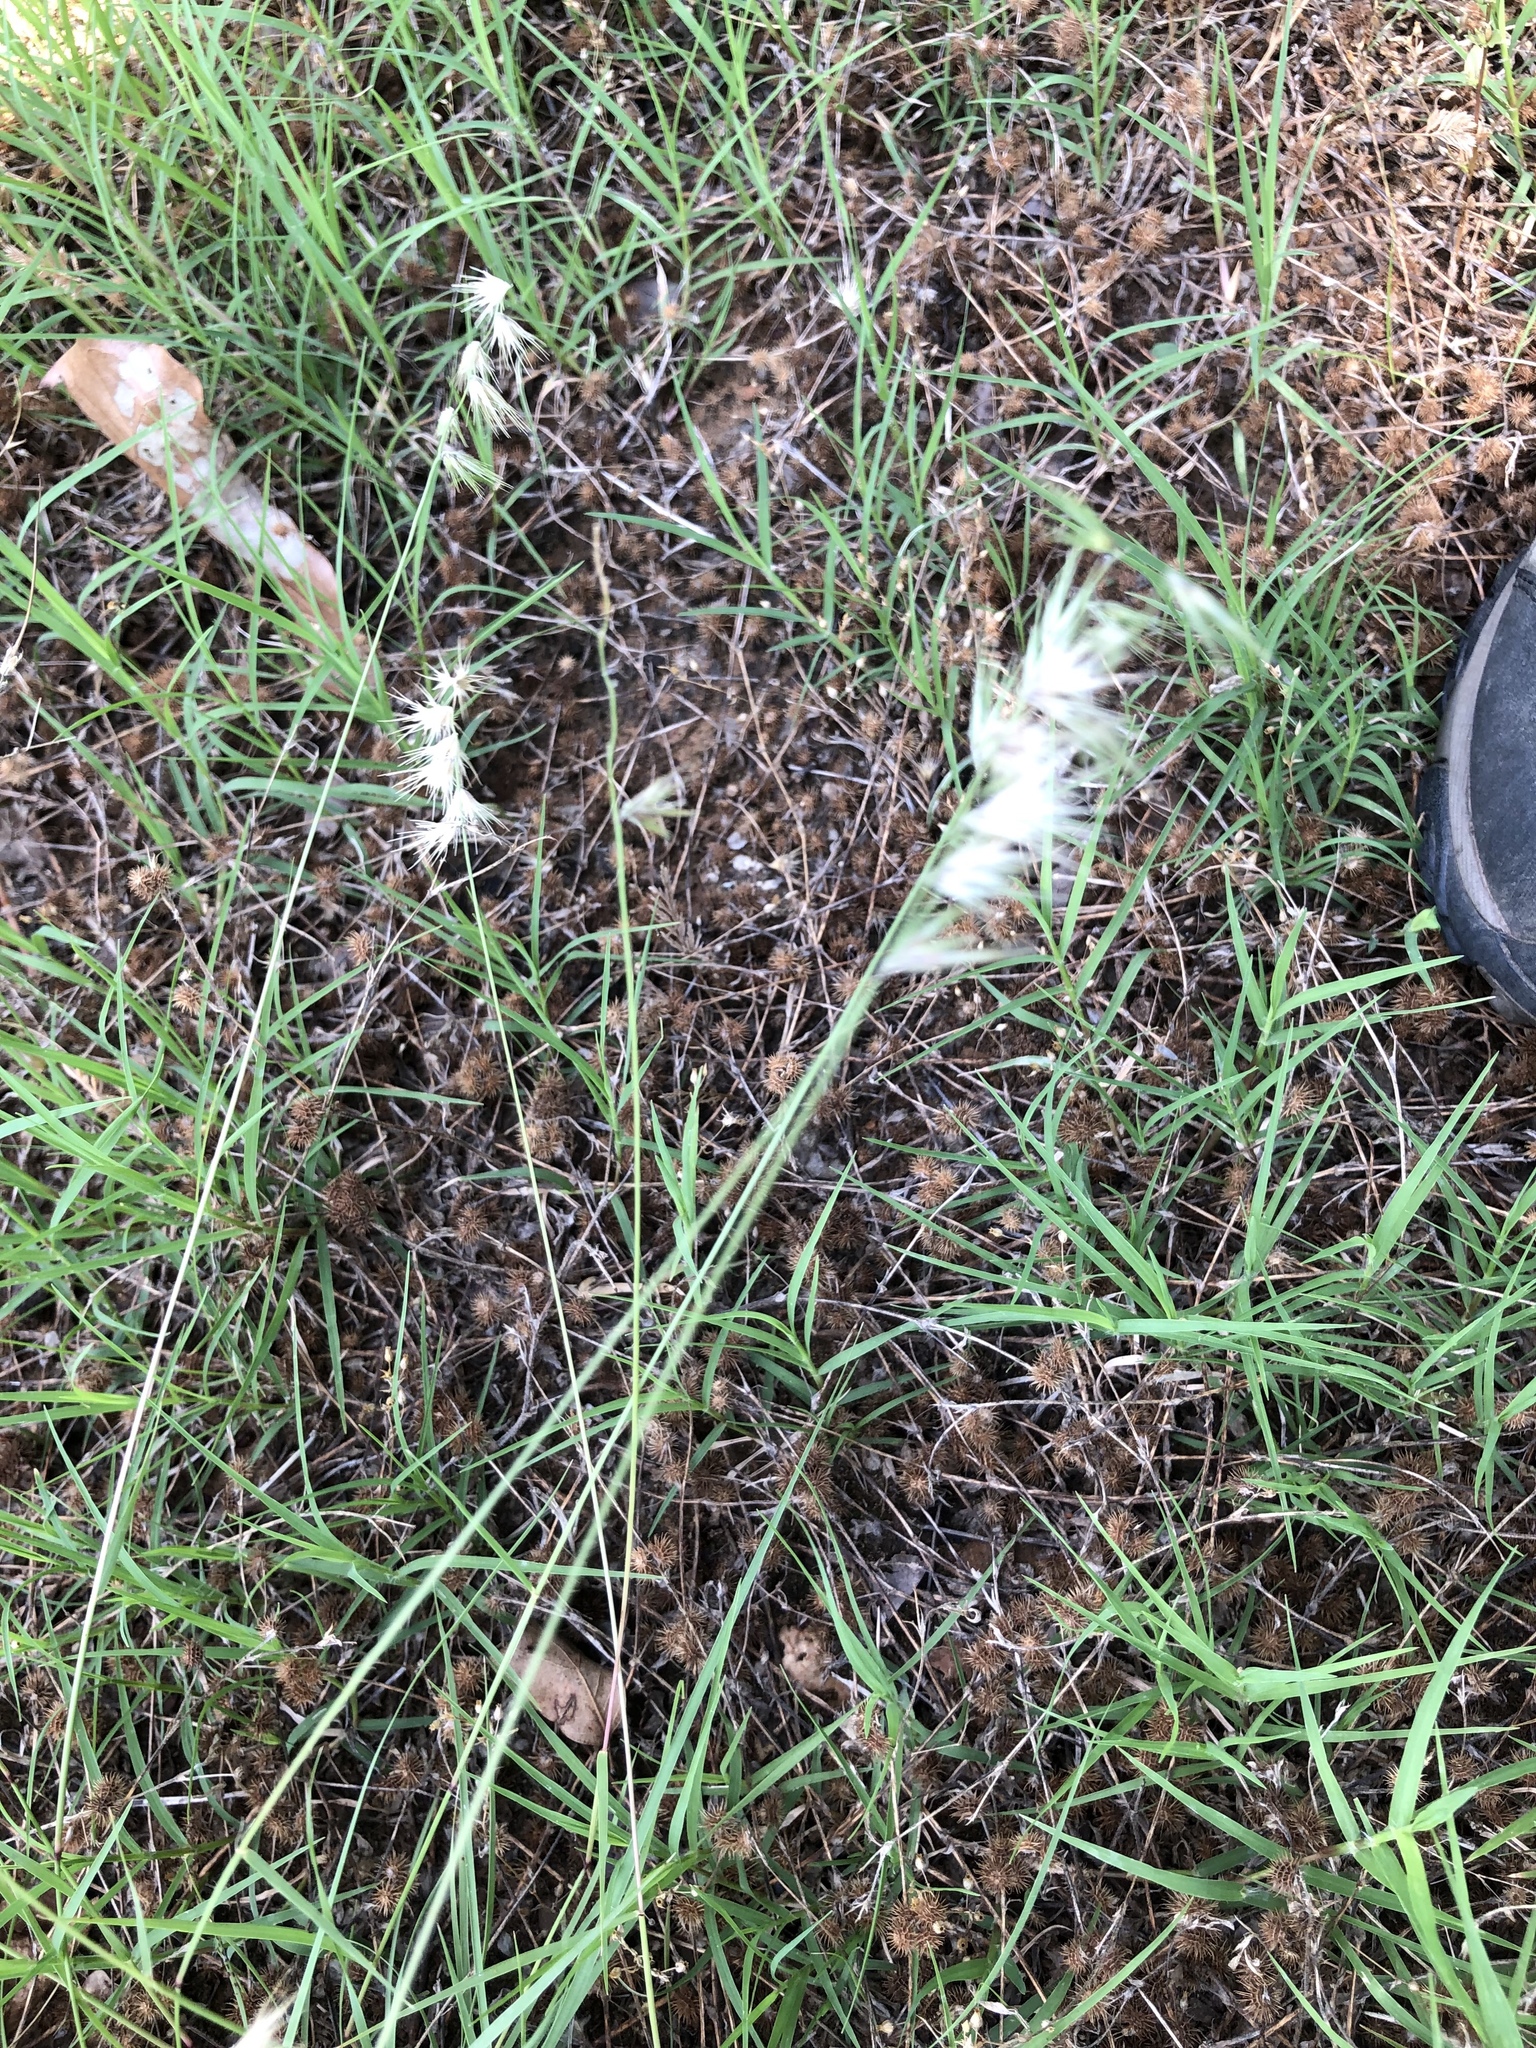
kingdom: Plantae
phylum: Tracheophyta
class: Liliopsida
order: Poales
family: Poaceae
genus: Bouteloua
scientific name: Bouteloua rigidiseta
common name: Texas grama
